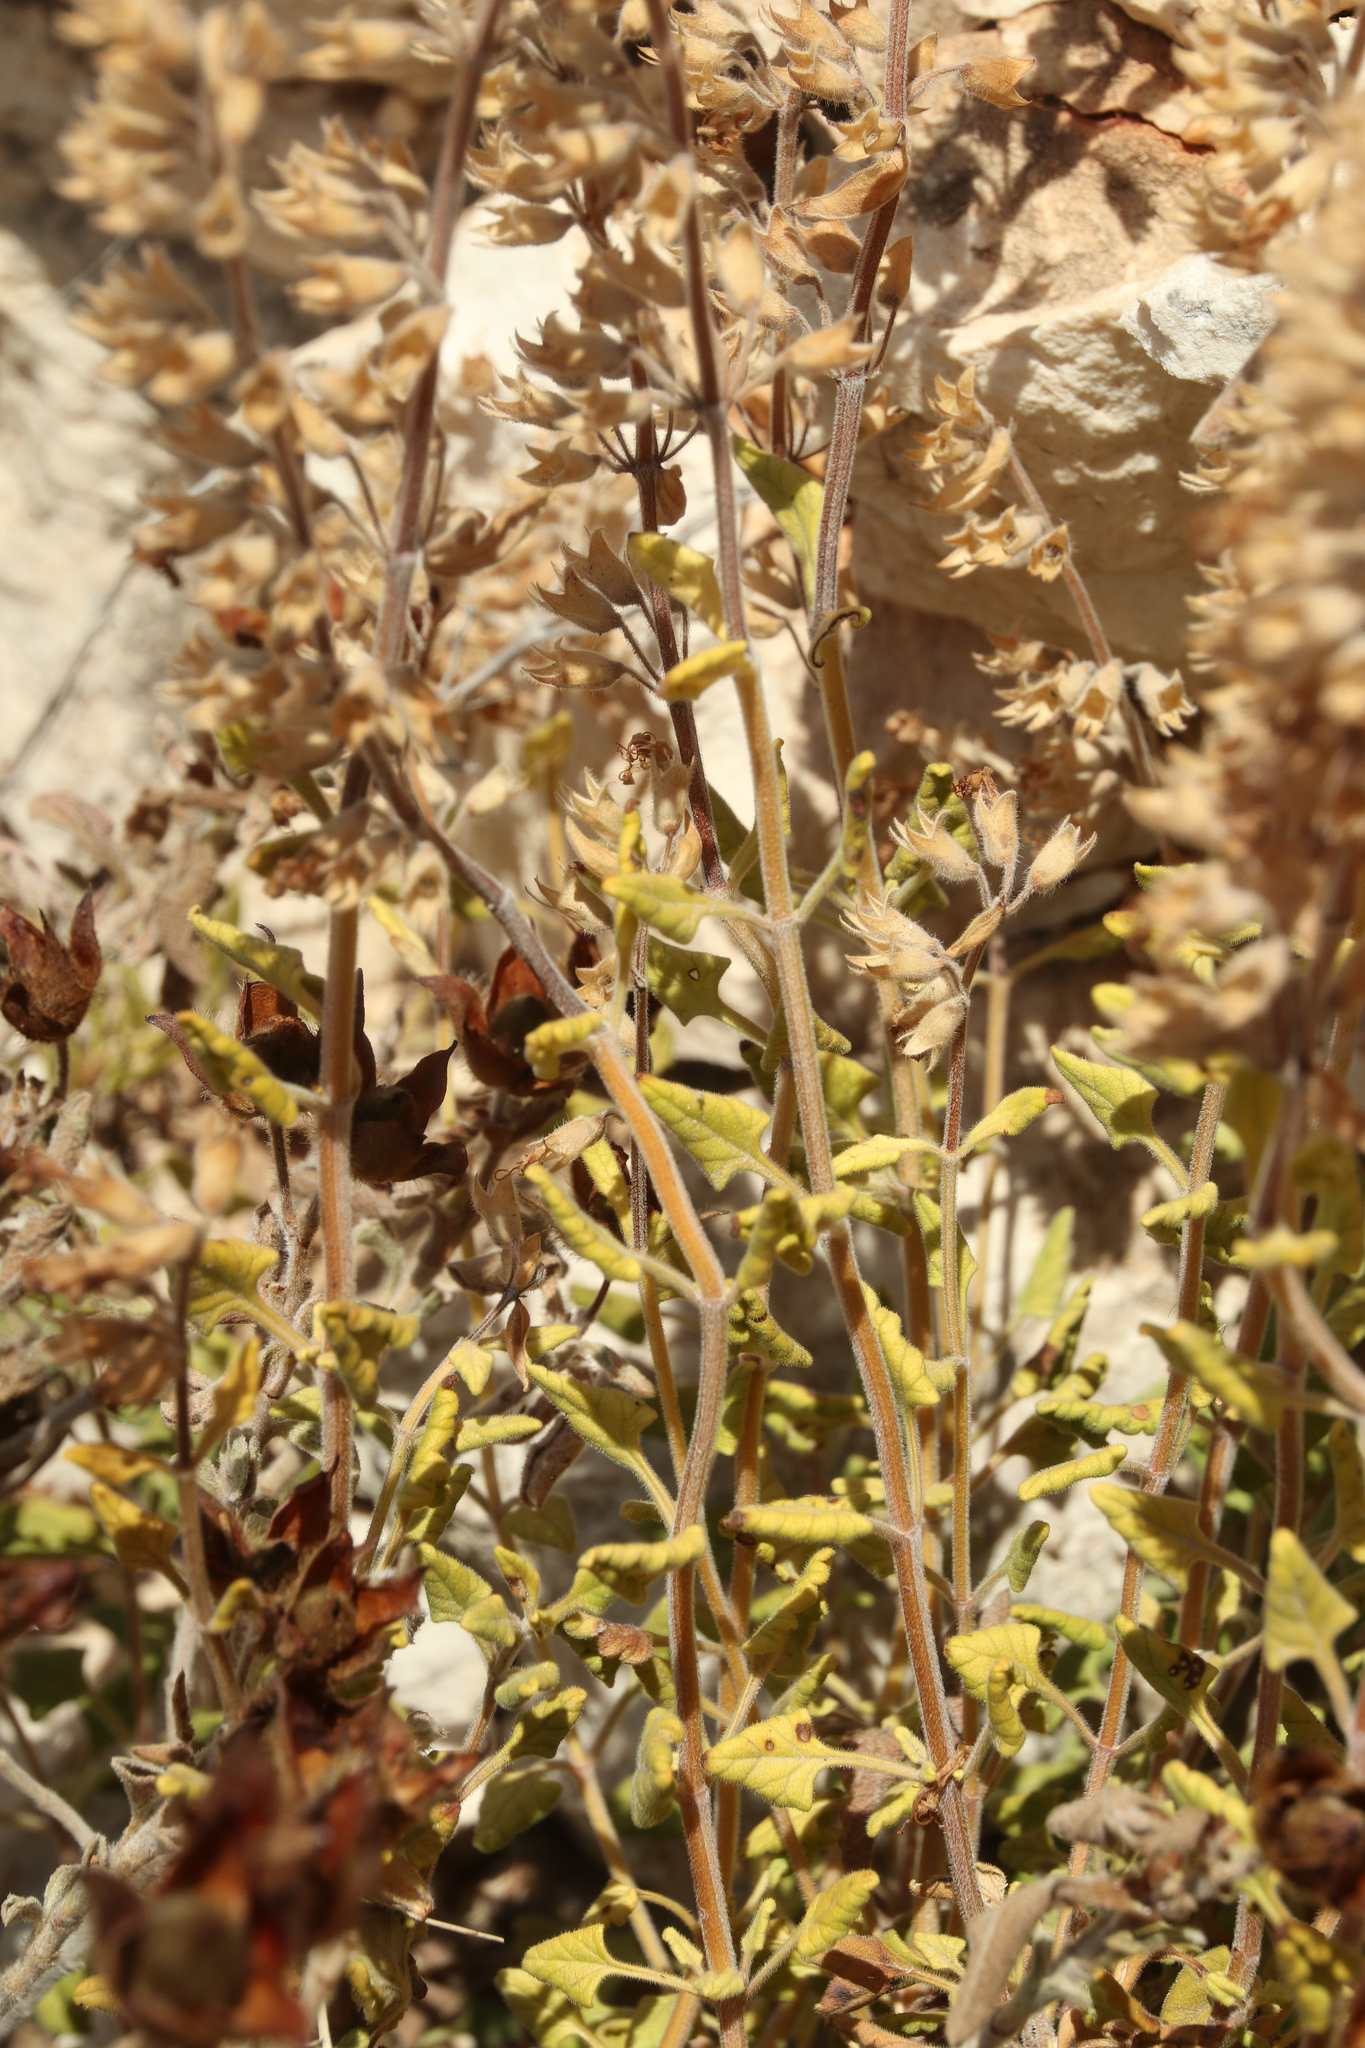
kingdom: Plantae
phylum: Tracheophyta
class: Magnoliopsida
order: Lamiales
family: Lamiaceae
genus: Teucrium
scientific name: Teucrium flavum
